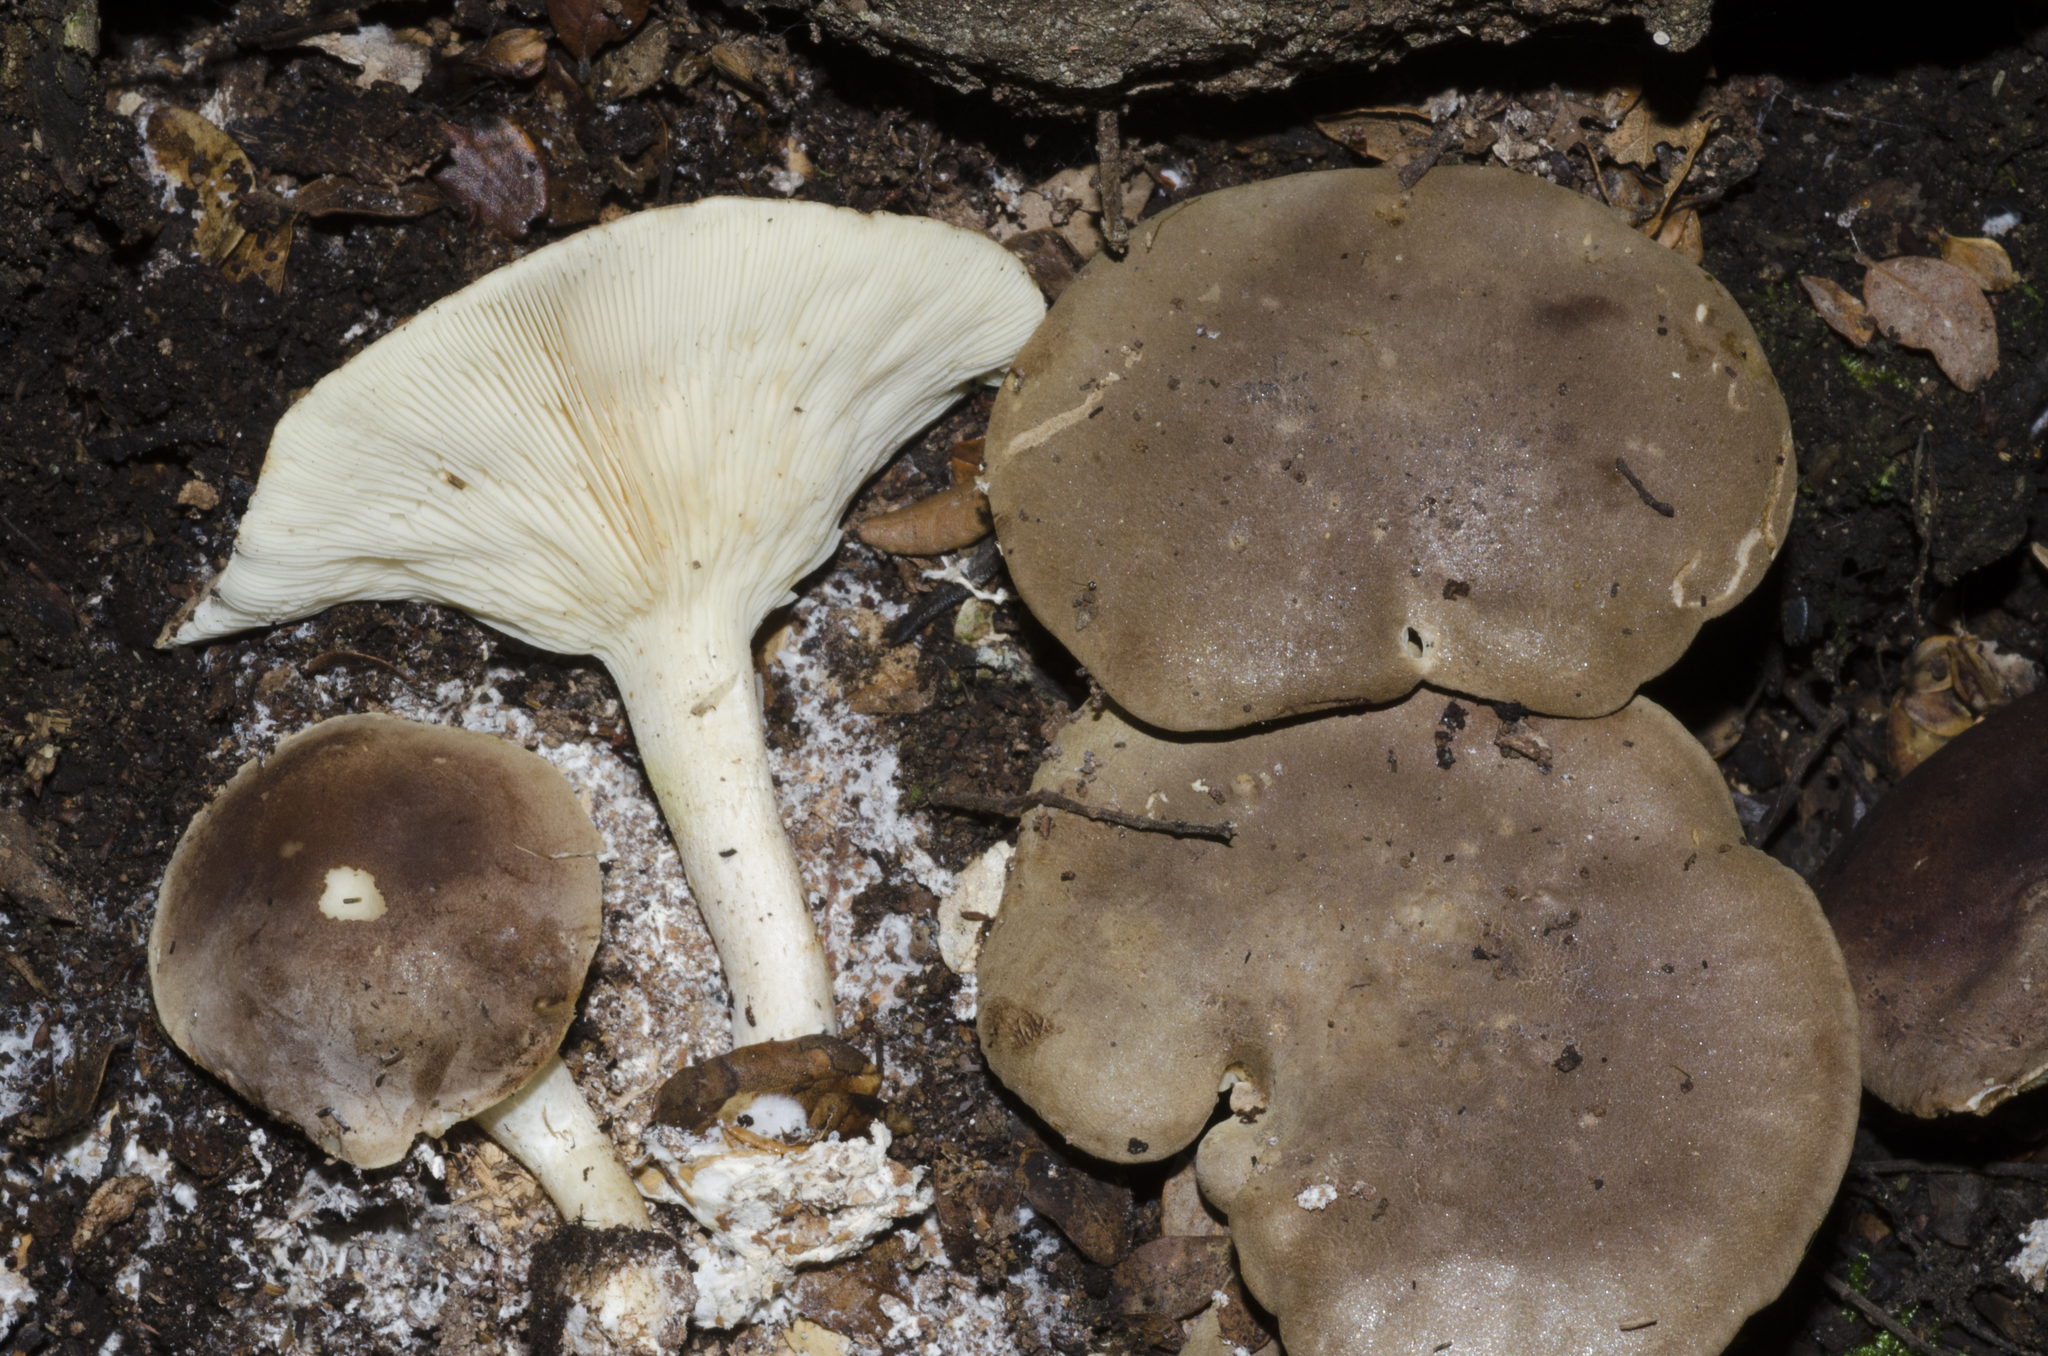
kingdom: Fungi
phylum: Basidiomycota
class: Agaricomycetes
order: Agaricales
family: Tricholomataceae
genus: Clitocybe
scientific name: Clitocybe eucalyptorum
